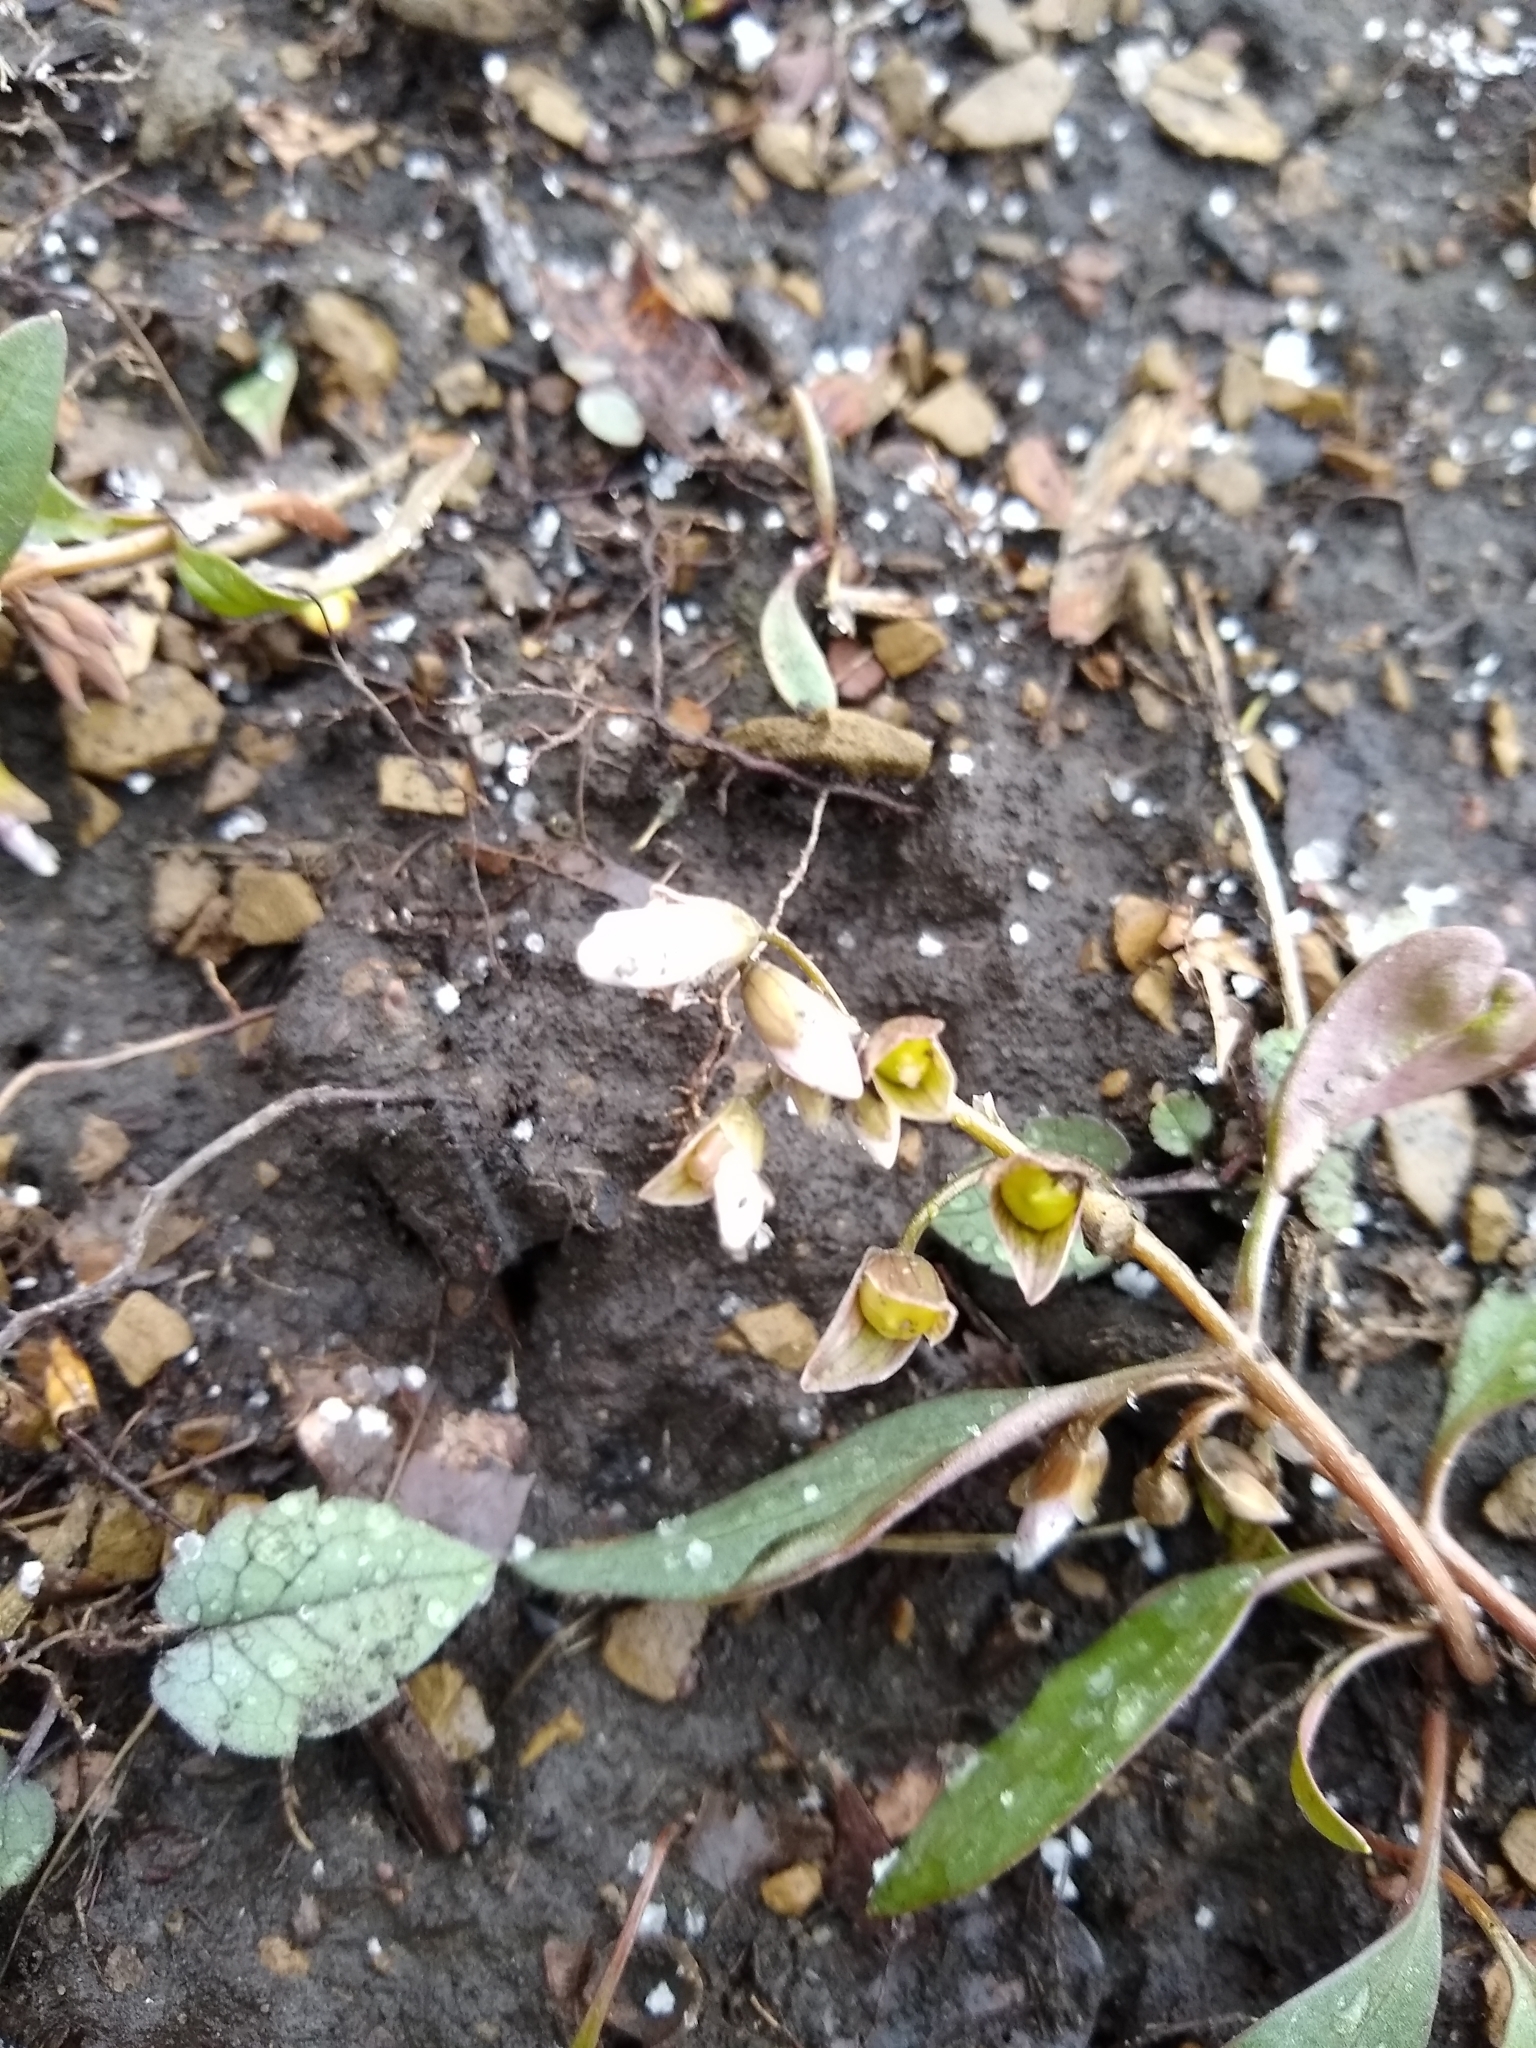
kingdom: Plantae
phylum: Tracheophyta
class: Magnoliopsida
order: Caryophyllales
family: Montiaceae
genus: Claytonia
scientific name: Claytonia caroliniana
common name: Carolina spring beauty
